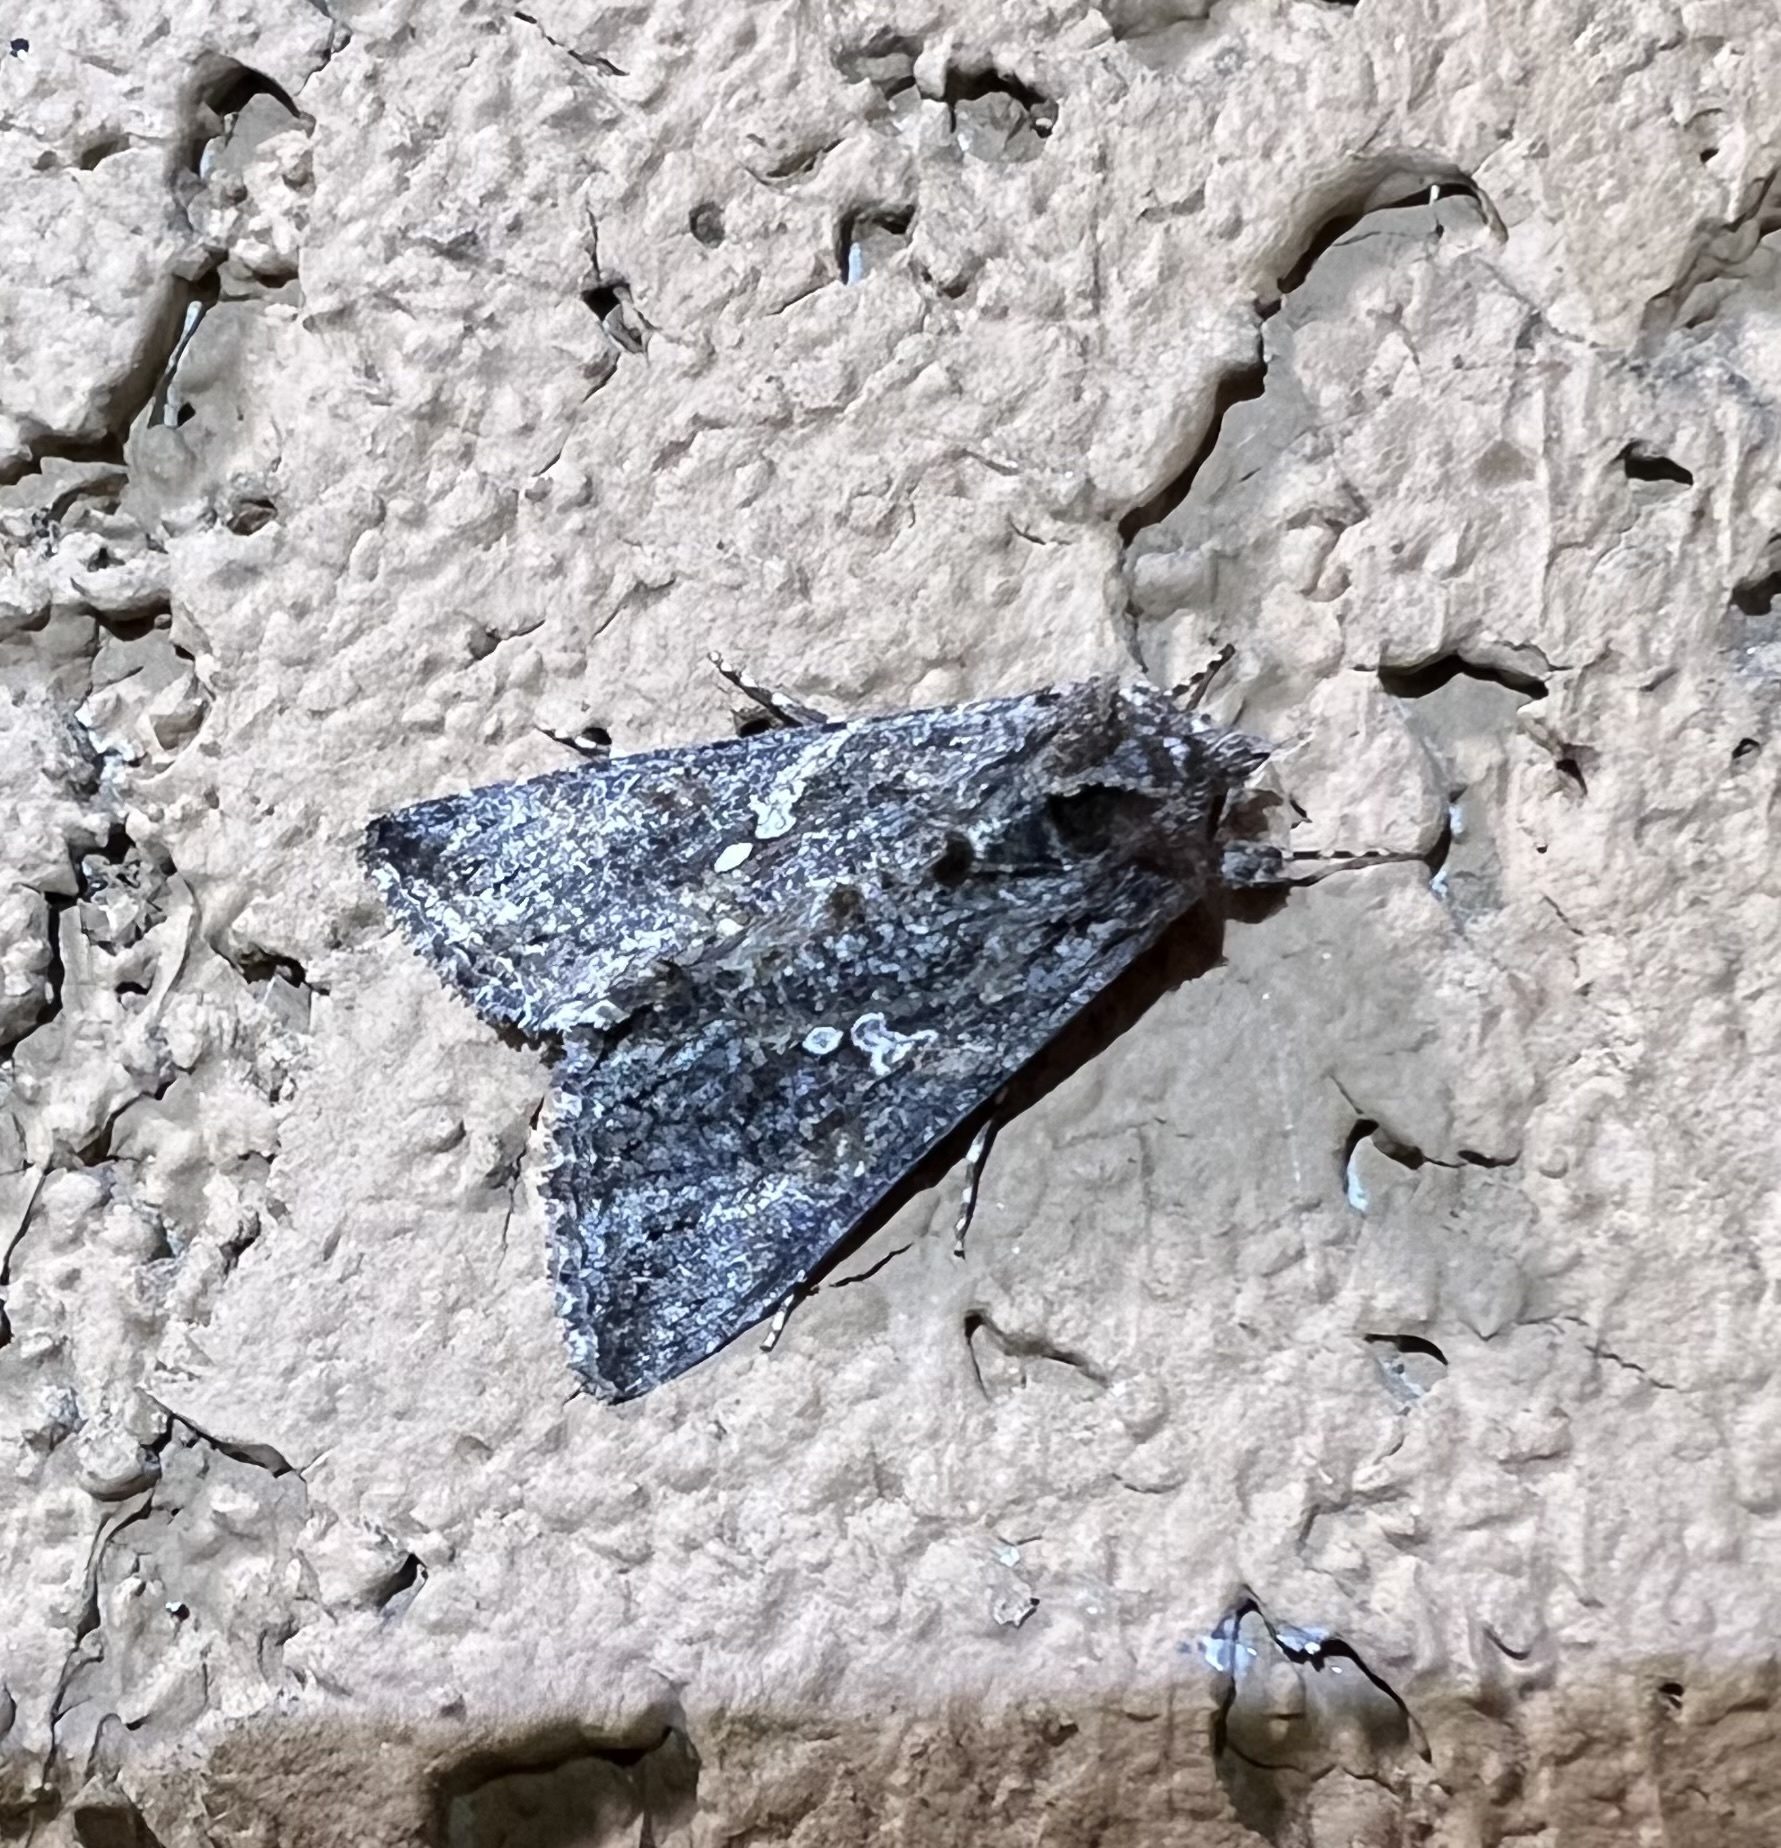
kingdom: Animalia
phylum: Arthropoda
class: Insecta
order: Lepidoptera
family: Noctuidae
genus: Trichoplusia
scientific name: Trichoplusia ni
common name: Ni moth
